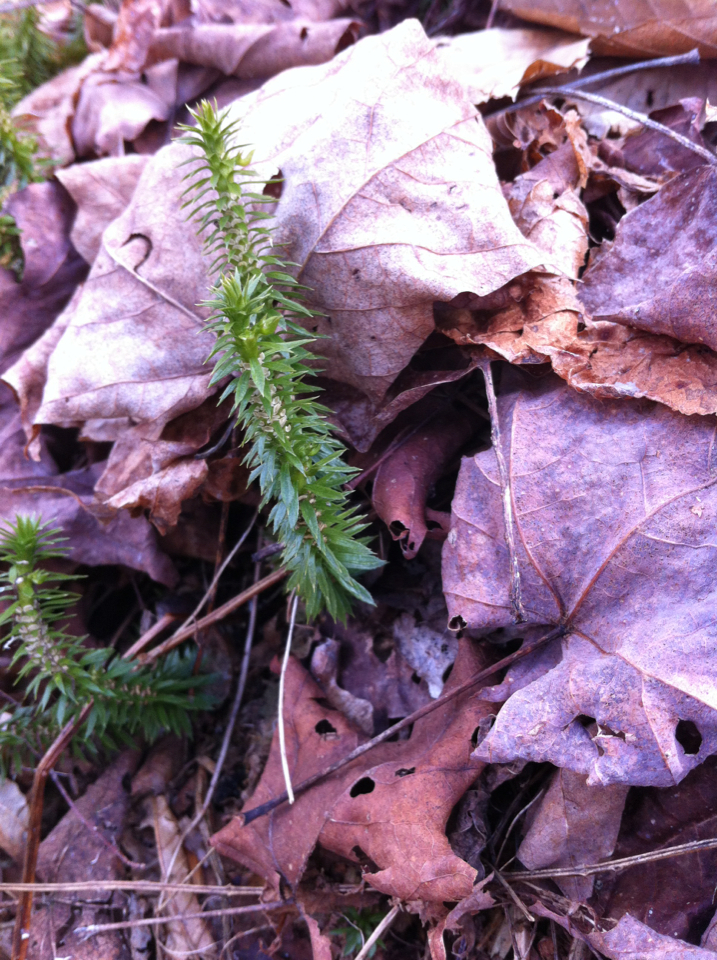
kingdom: Plantae
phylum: Tracheophyta
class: Lycopodiopsida
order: Lycopodiales
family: Lycopodiaceae
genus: Huperzia
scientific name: Huperzia lucidula
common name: Shining clubmoss
